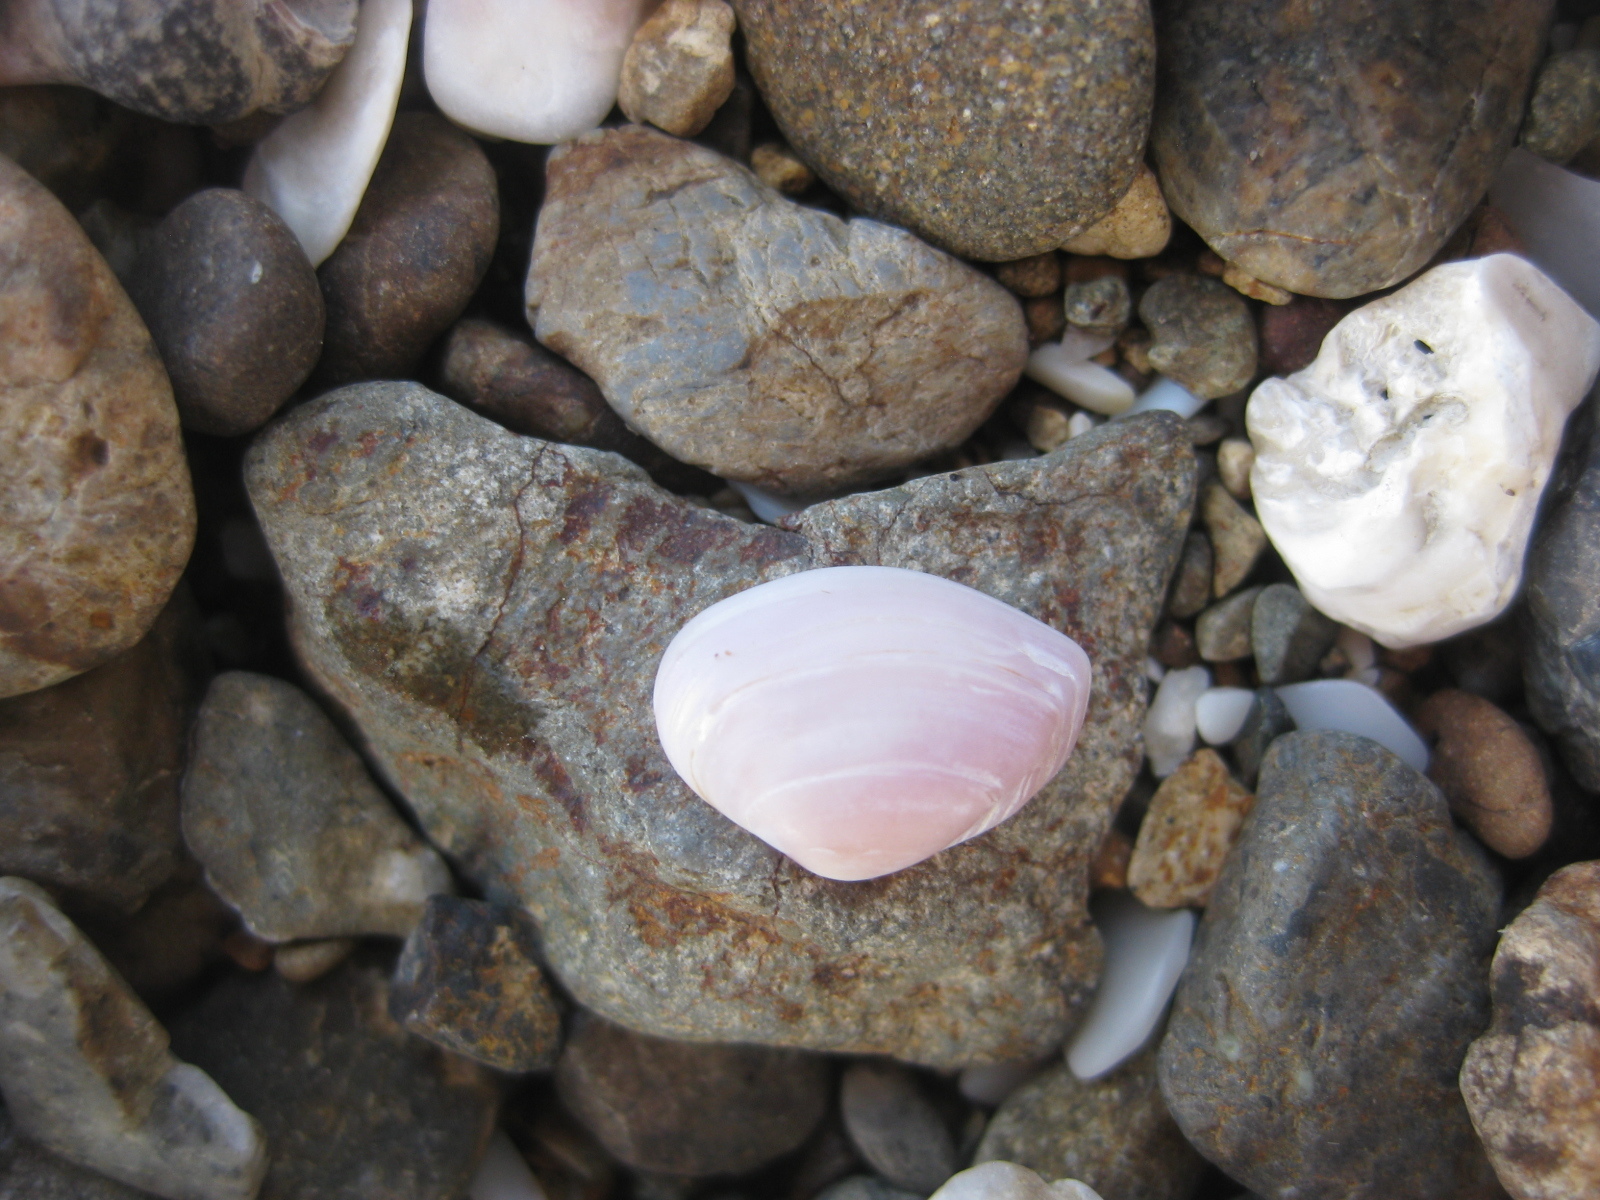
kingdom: Animalia
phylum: Mollusca
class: Bivalvia
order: Myida
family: Corbulidae
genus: Corbula
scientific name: Corbula zelandica
